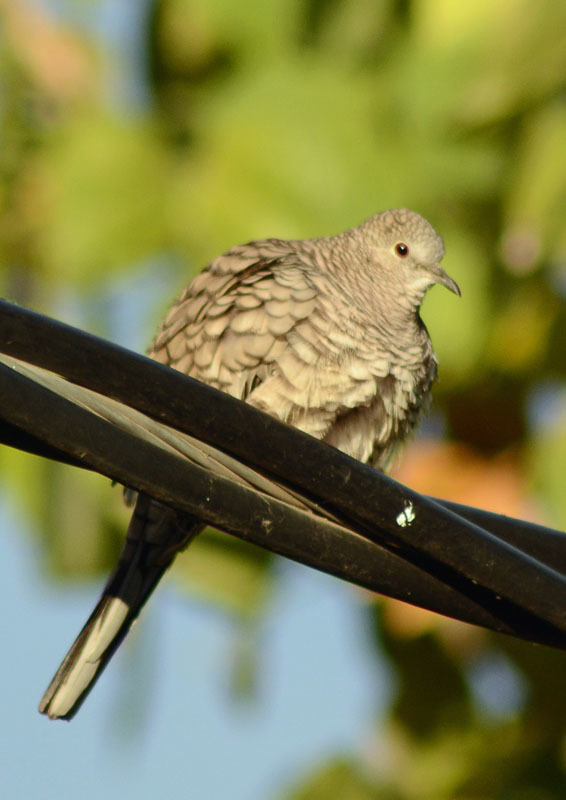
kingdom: Animalia
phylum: Chordata
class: Aves
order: Columbiformes
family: Columbidae
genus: Columbina
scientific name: Columbina inca
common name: Inca dove
